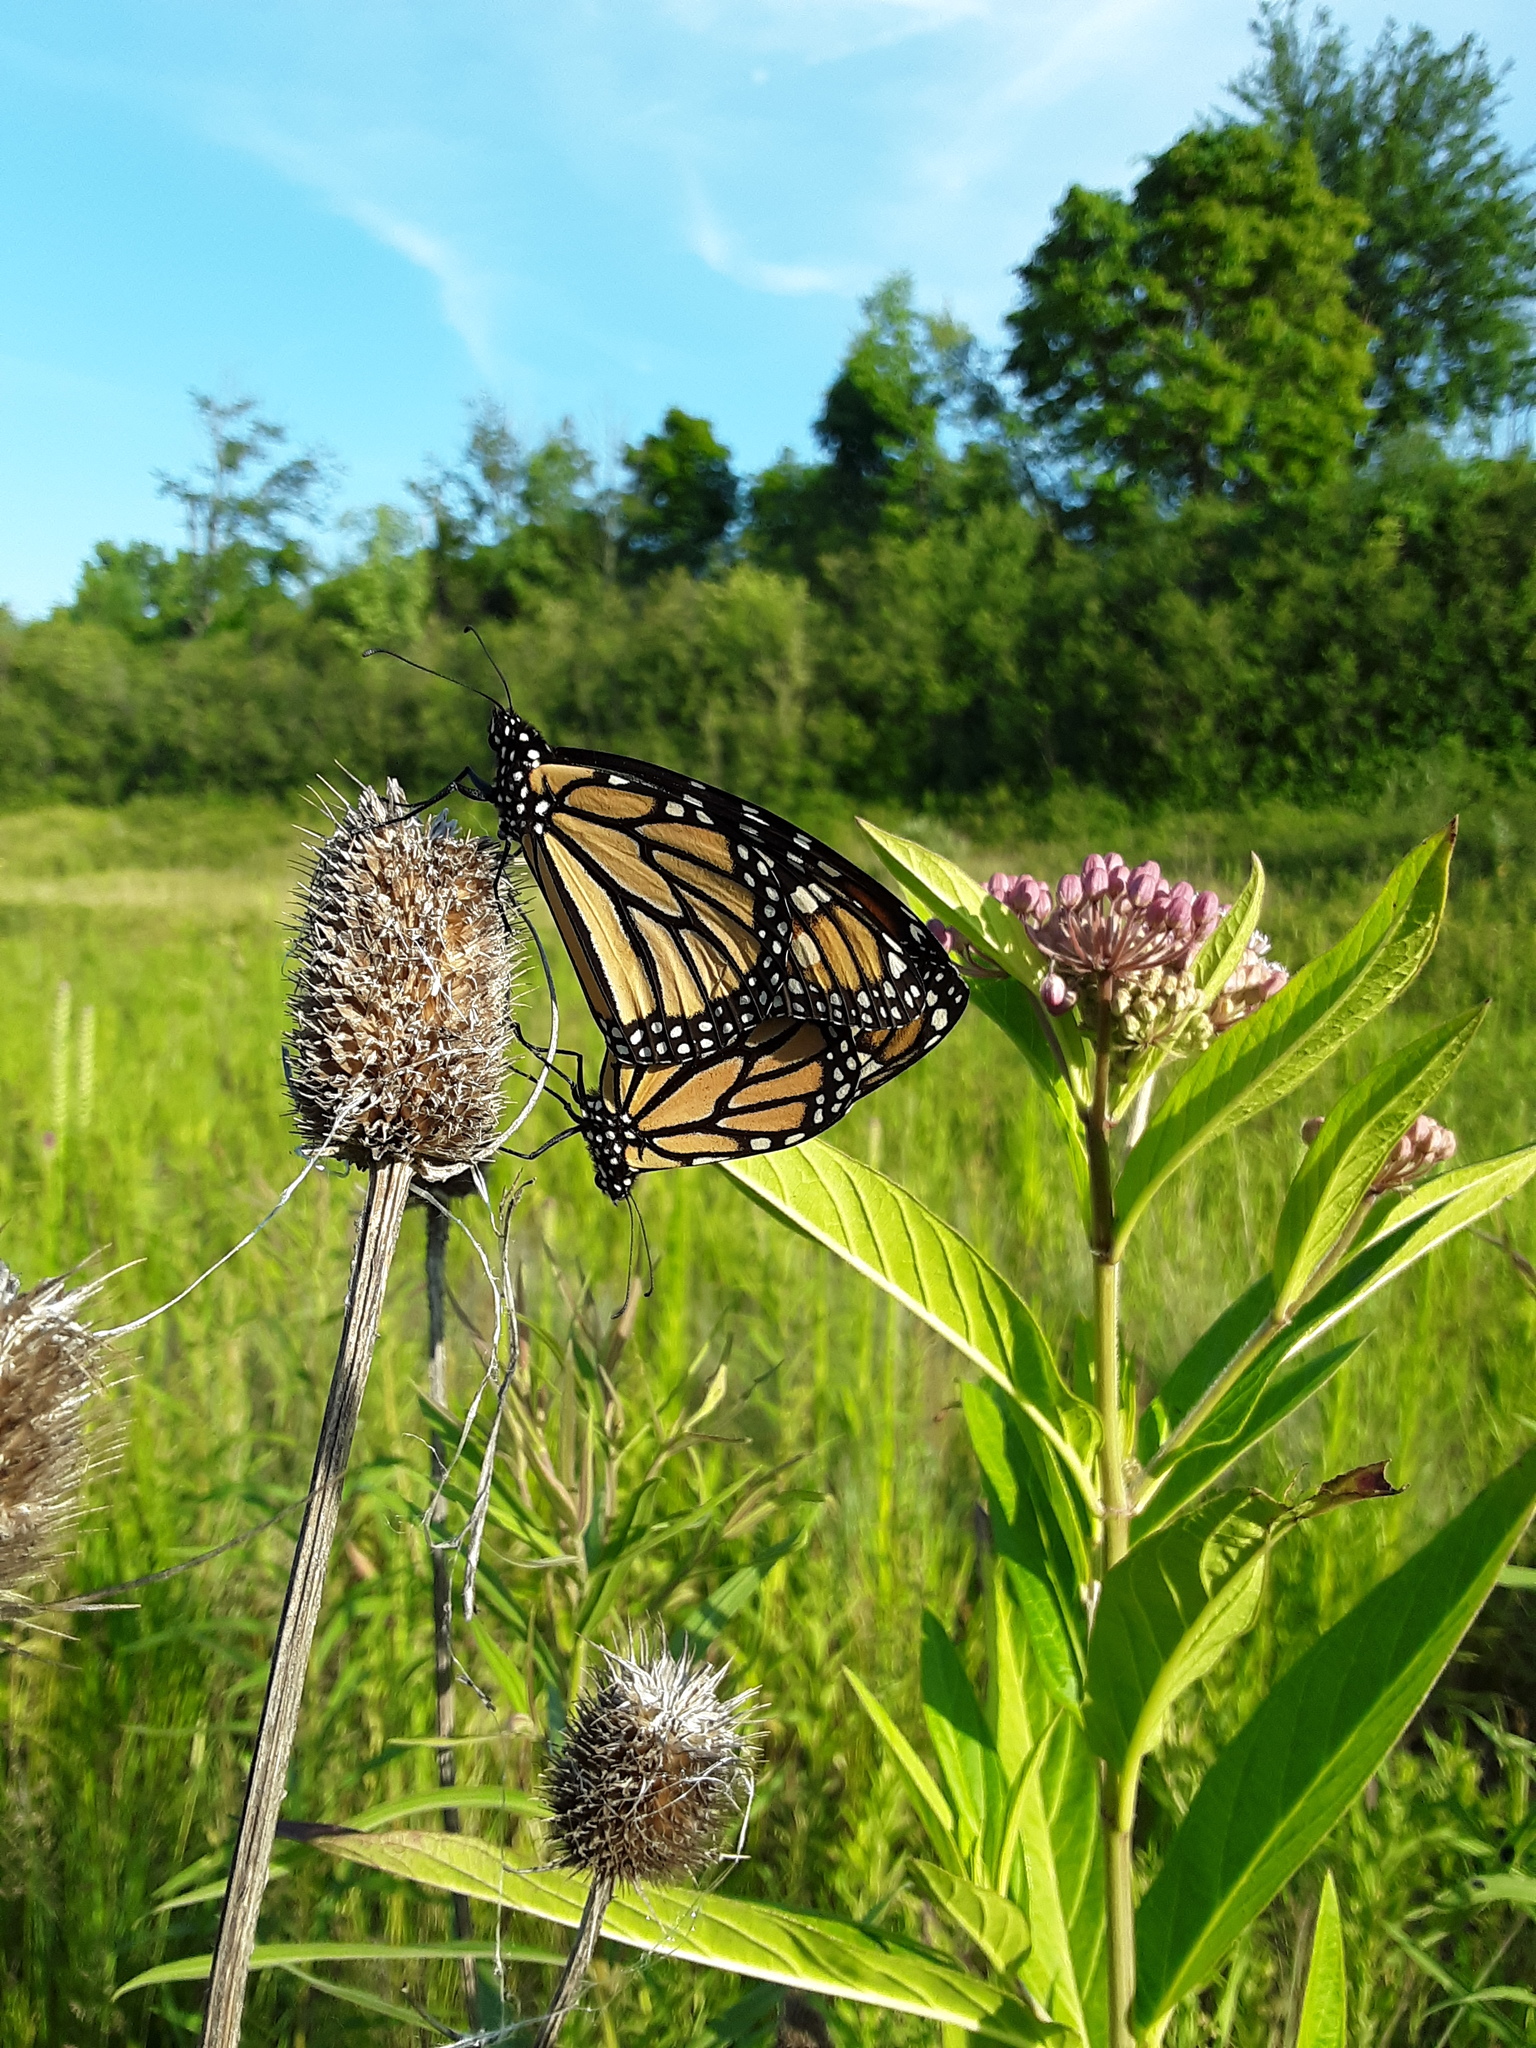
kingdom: Animalia
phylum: Arthropoda
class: Insecta
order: Lepidoptera
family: Nymphalidae
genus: Danaus
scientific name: Danaus plexippus
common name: Monarch
